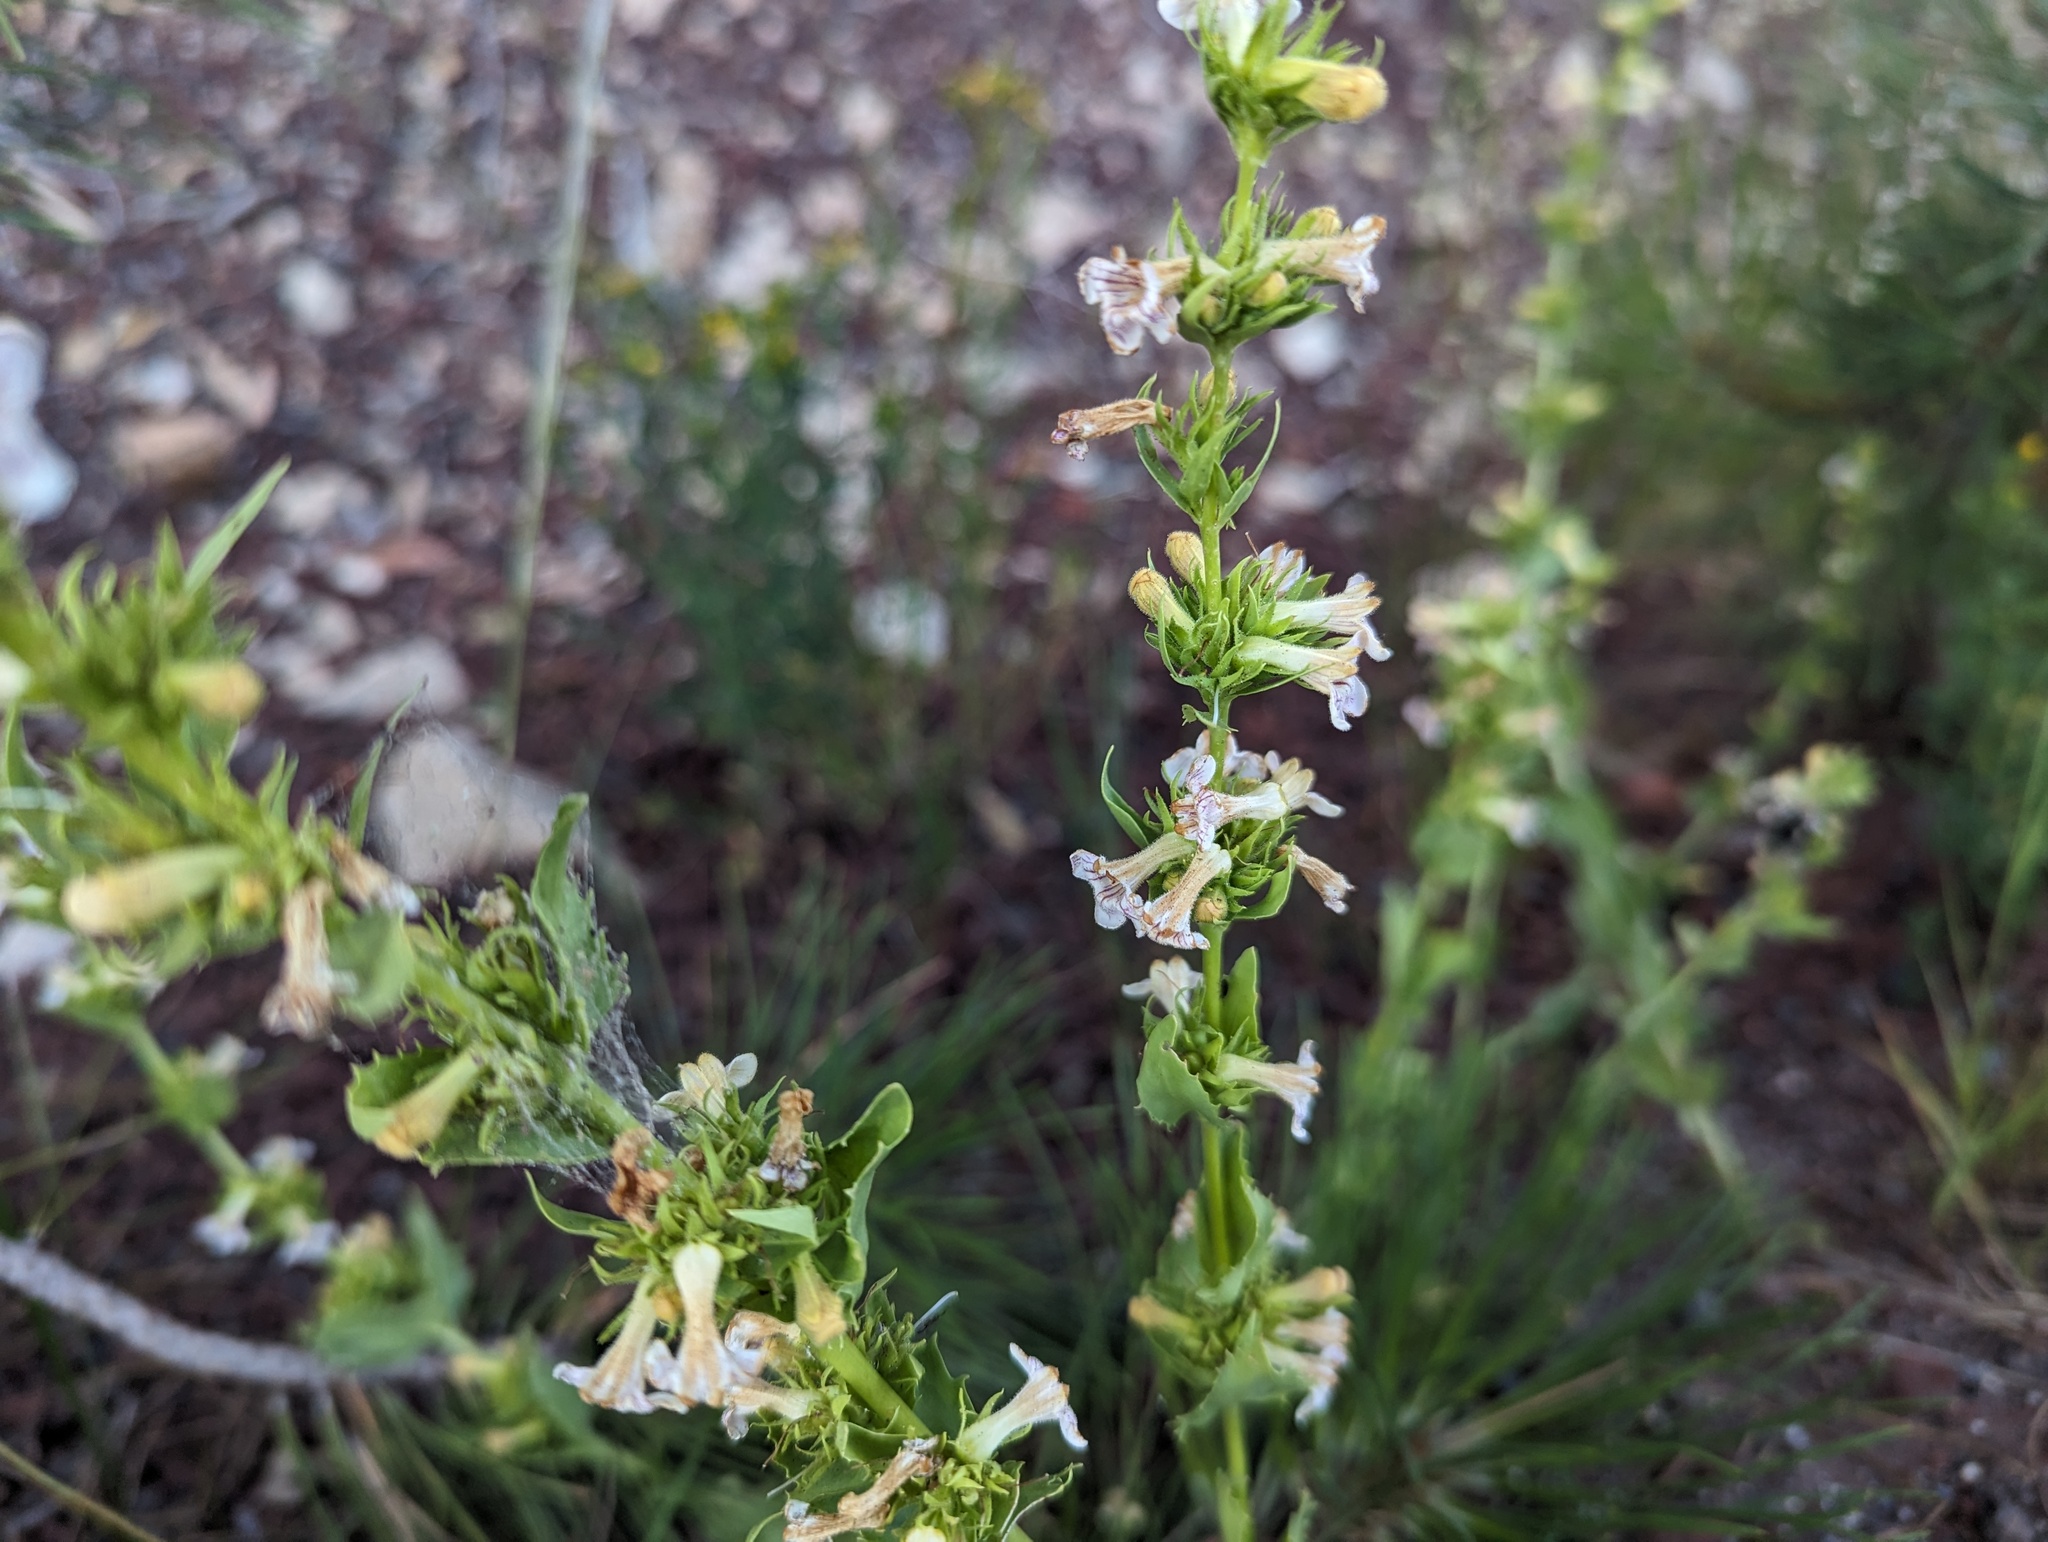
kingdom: Plantae
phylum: Tracheophyta
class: Magnoliopsida
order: Lamiales
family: Plantaginaceae
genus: Penstemon
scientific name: Penstemon deustus
